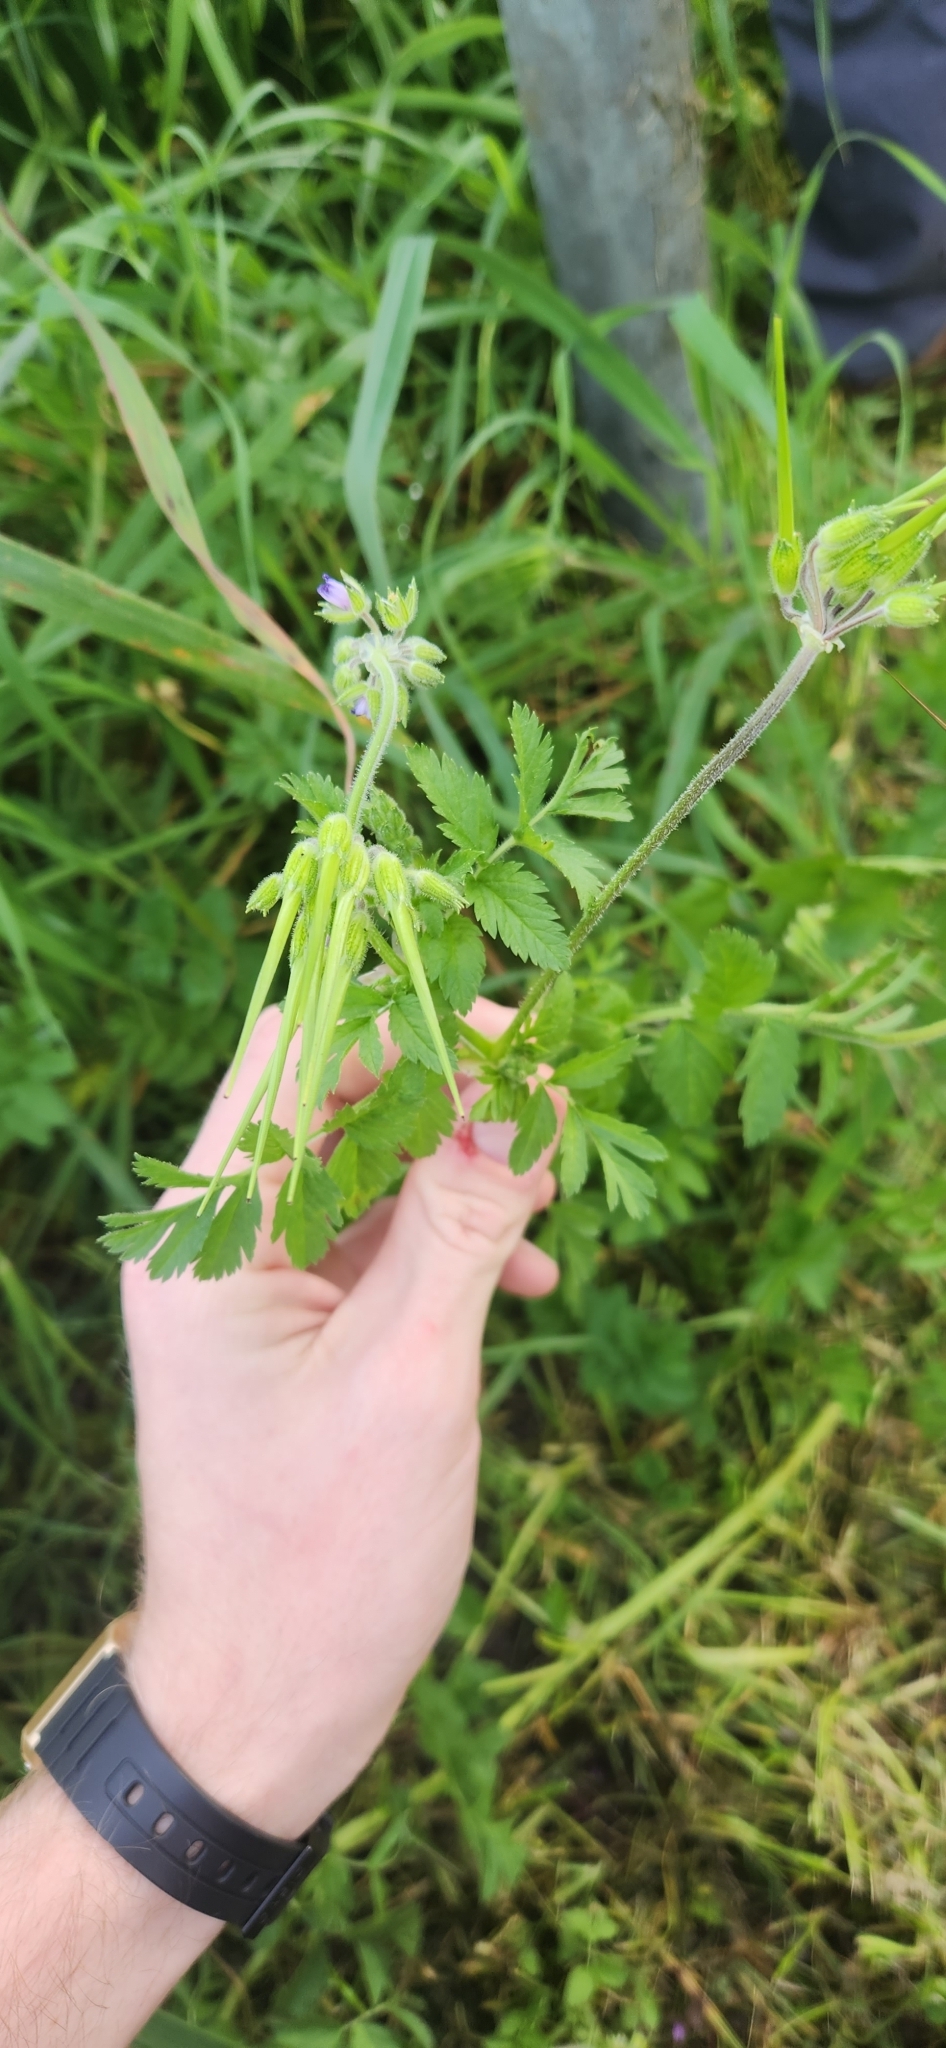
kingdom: Plantae
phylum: Tracheophyta
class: Magnoliopsida
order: Geraniales
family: Geraniaceae
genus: Erodium
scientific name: Erodium moschatum
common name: Musk stork's-bill
